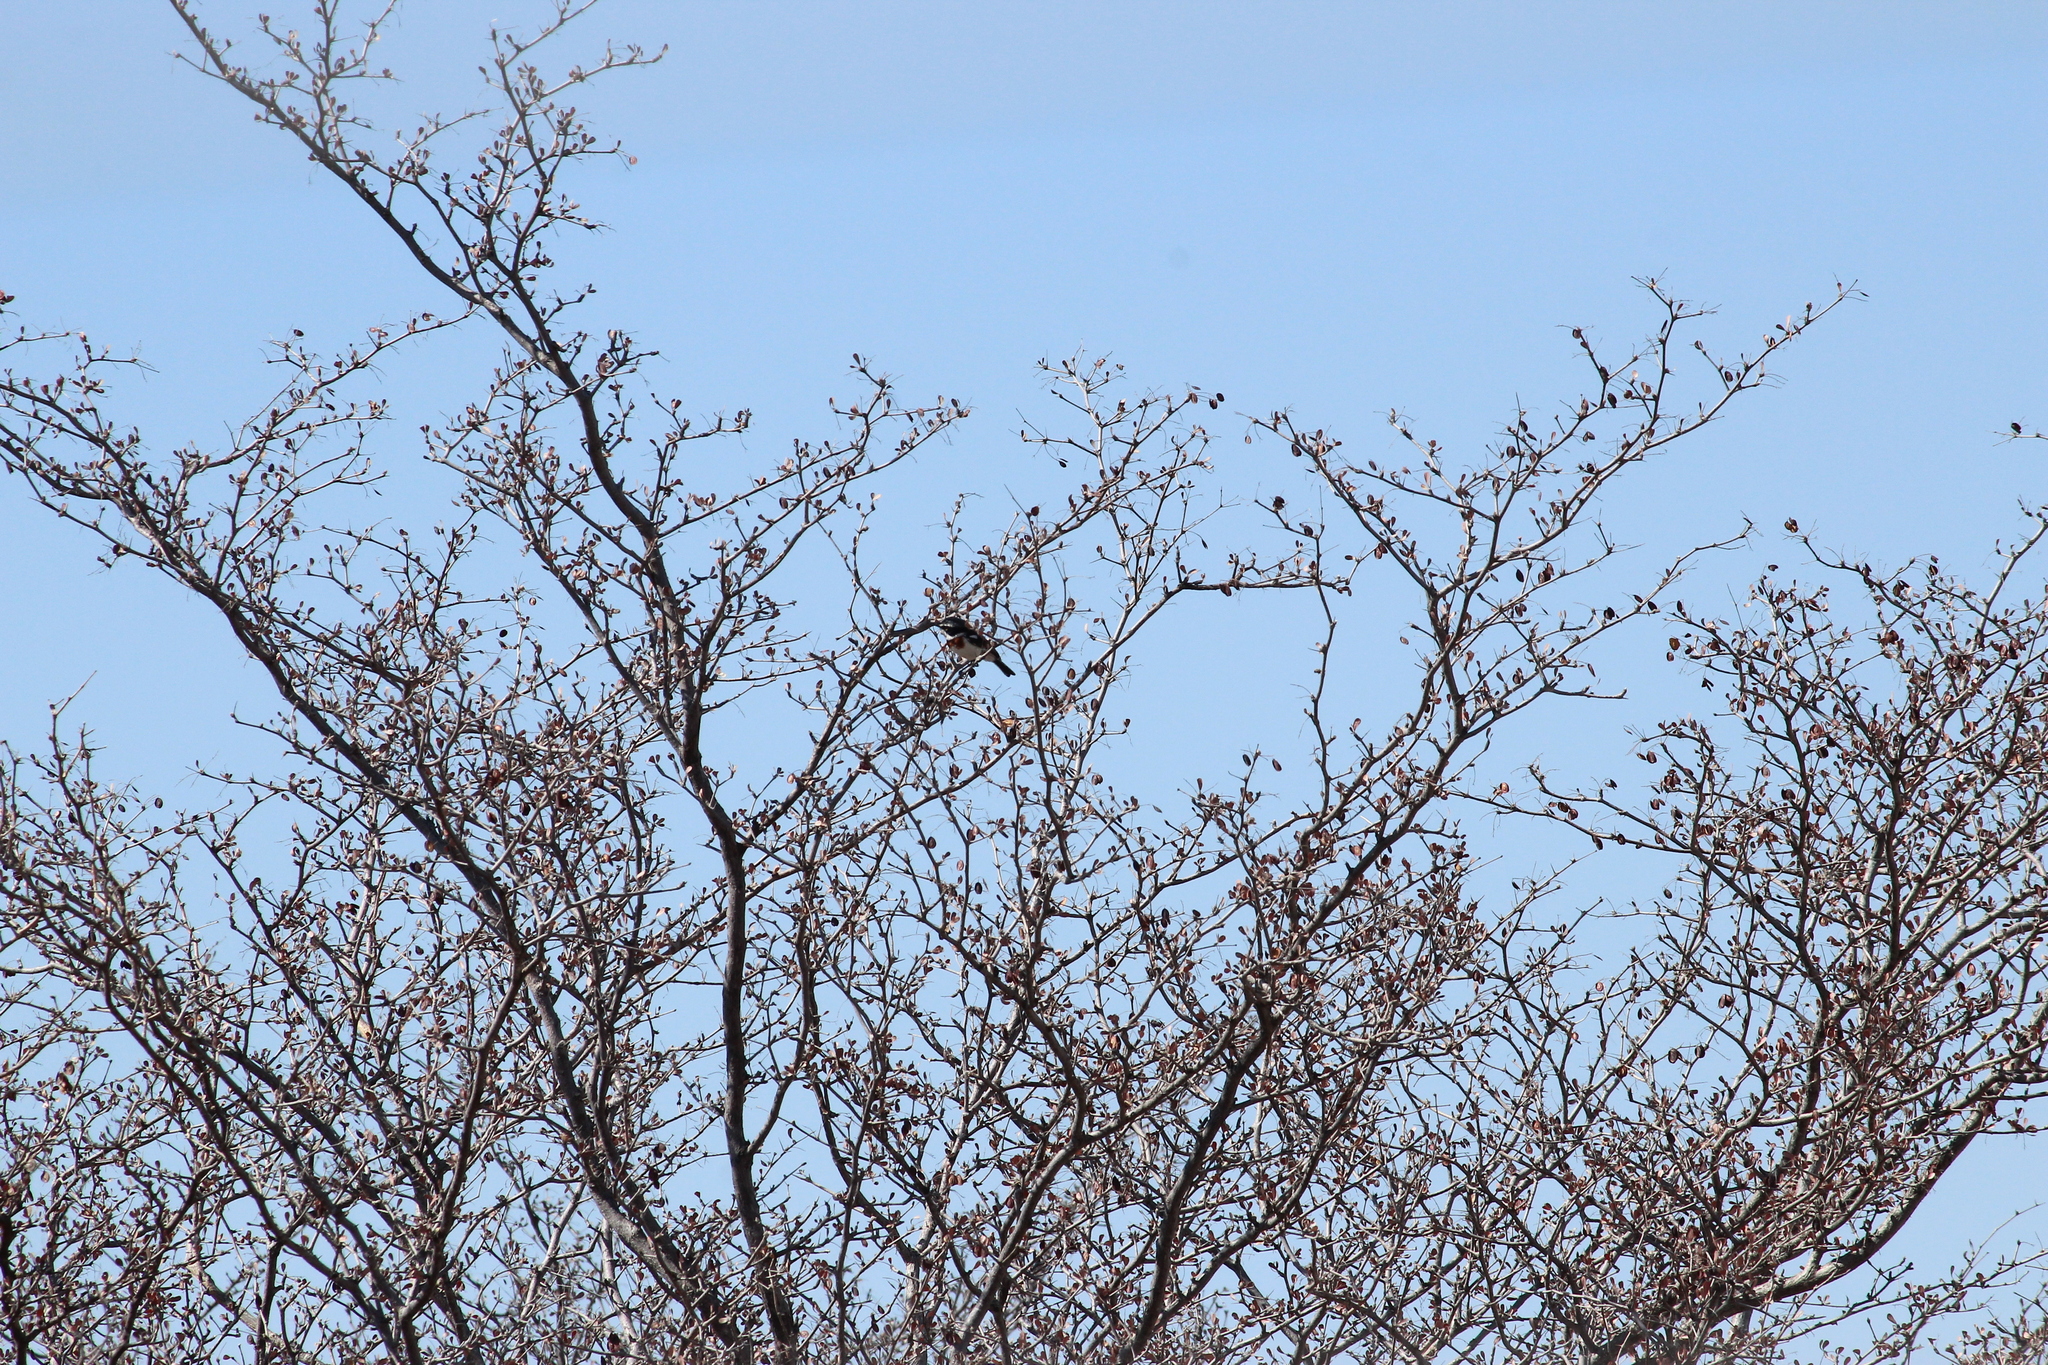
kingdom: Animalia
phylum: Chordata
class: Aves
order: Passeriformes
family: Platysteiridae
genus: Batis
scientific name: Batis molitor
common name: Chinspot batis
